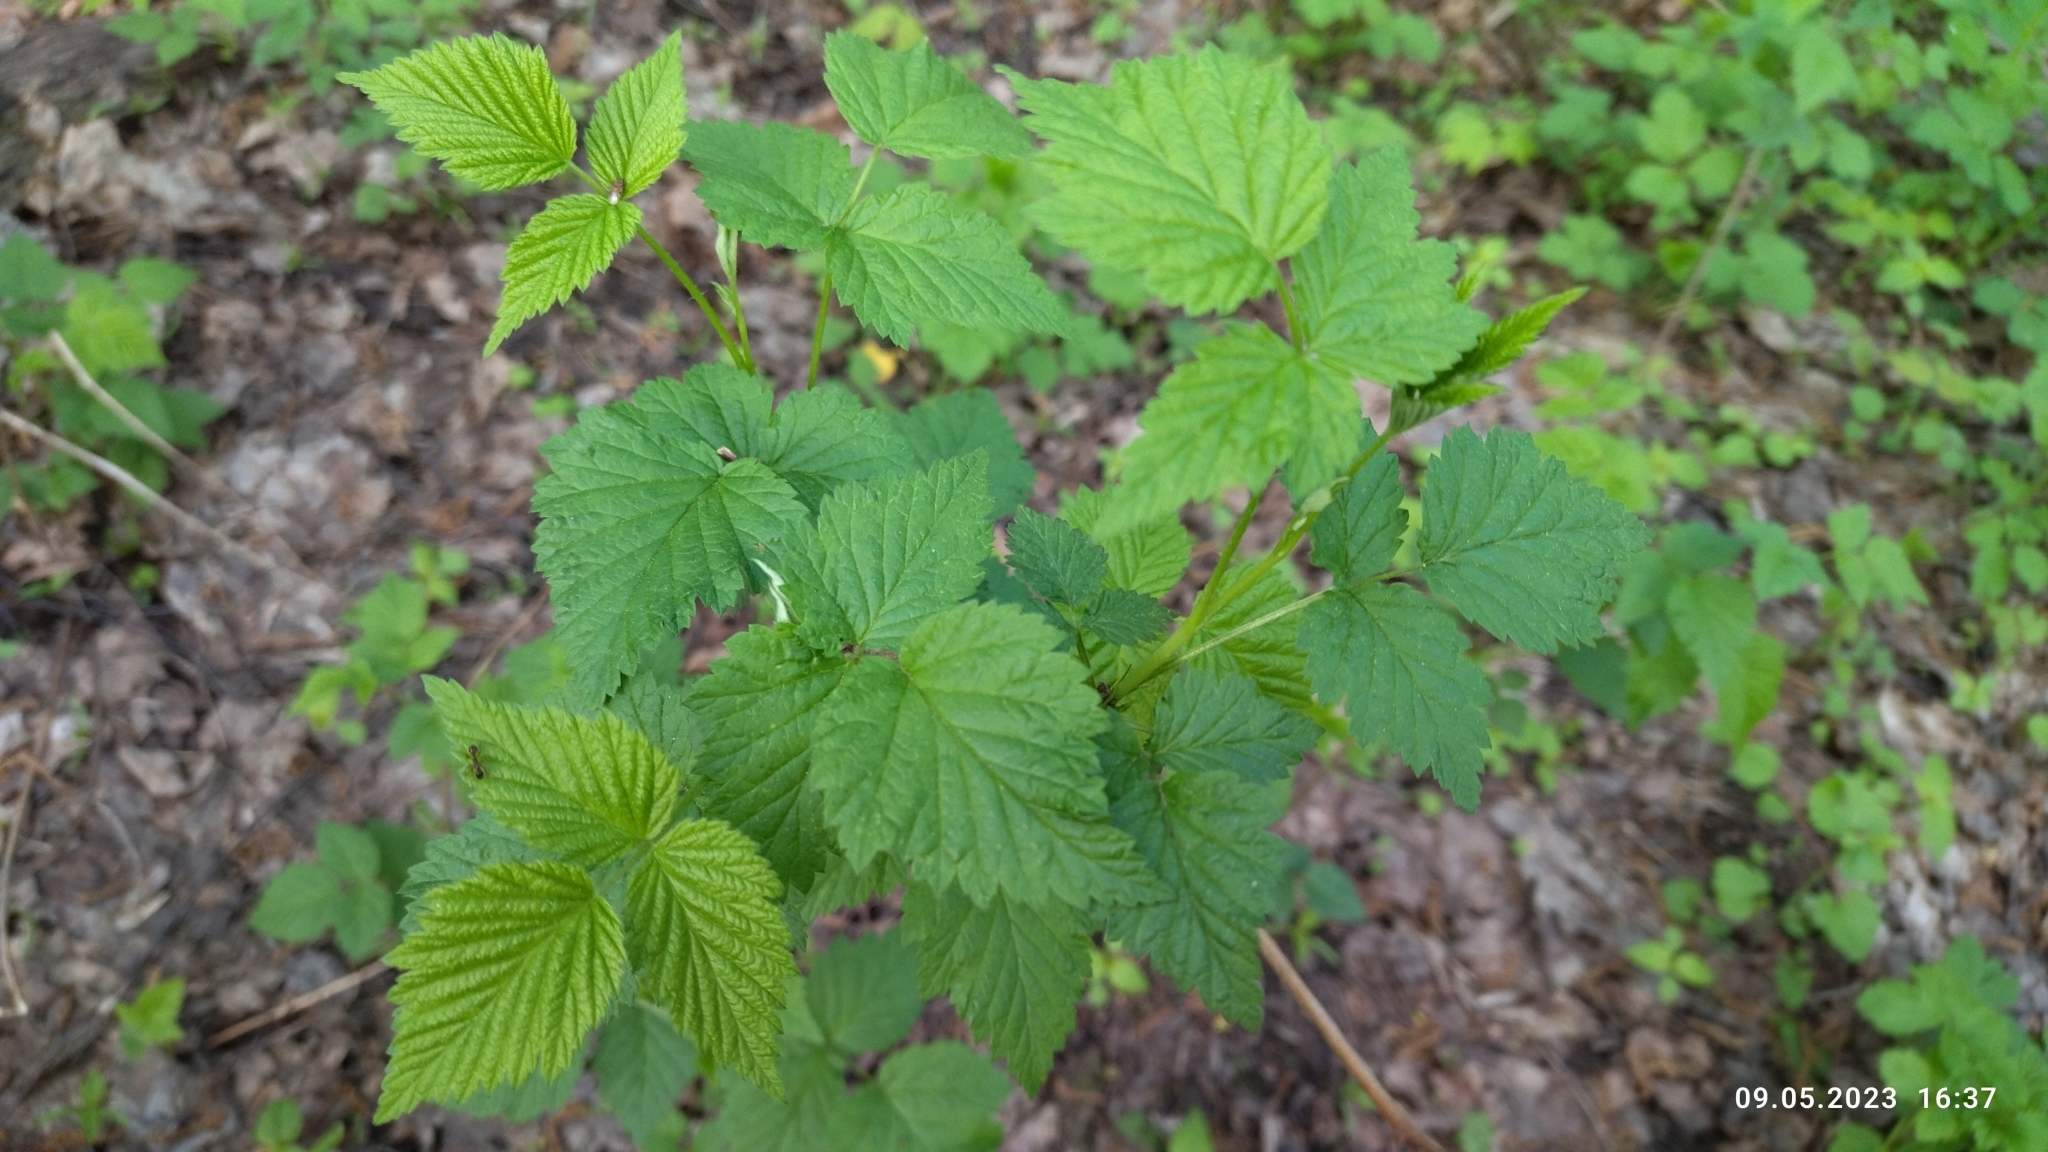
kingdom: Plantae
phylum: Tracheophyta
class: Magnoliopsida
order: Rosales
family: Rosaceae
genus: Rubus
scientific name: Rubus idaeus
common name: Raspberry
